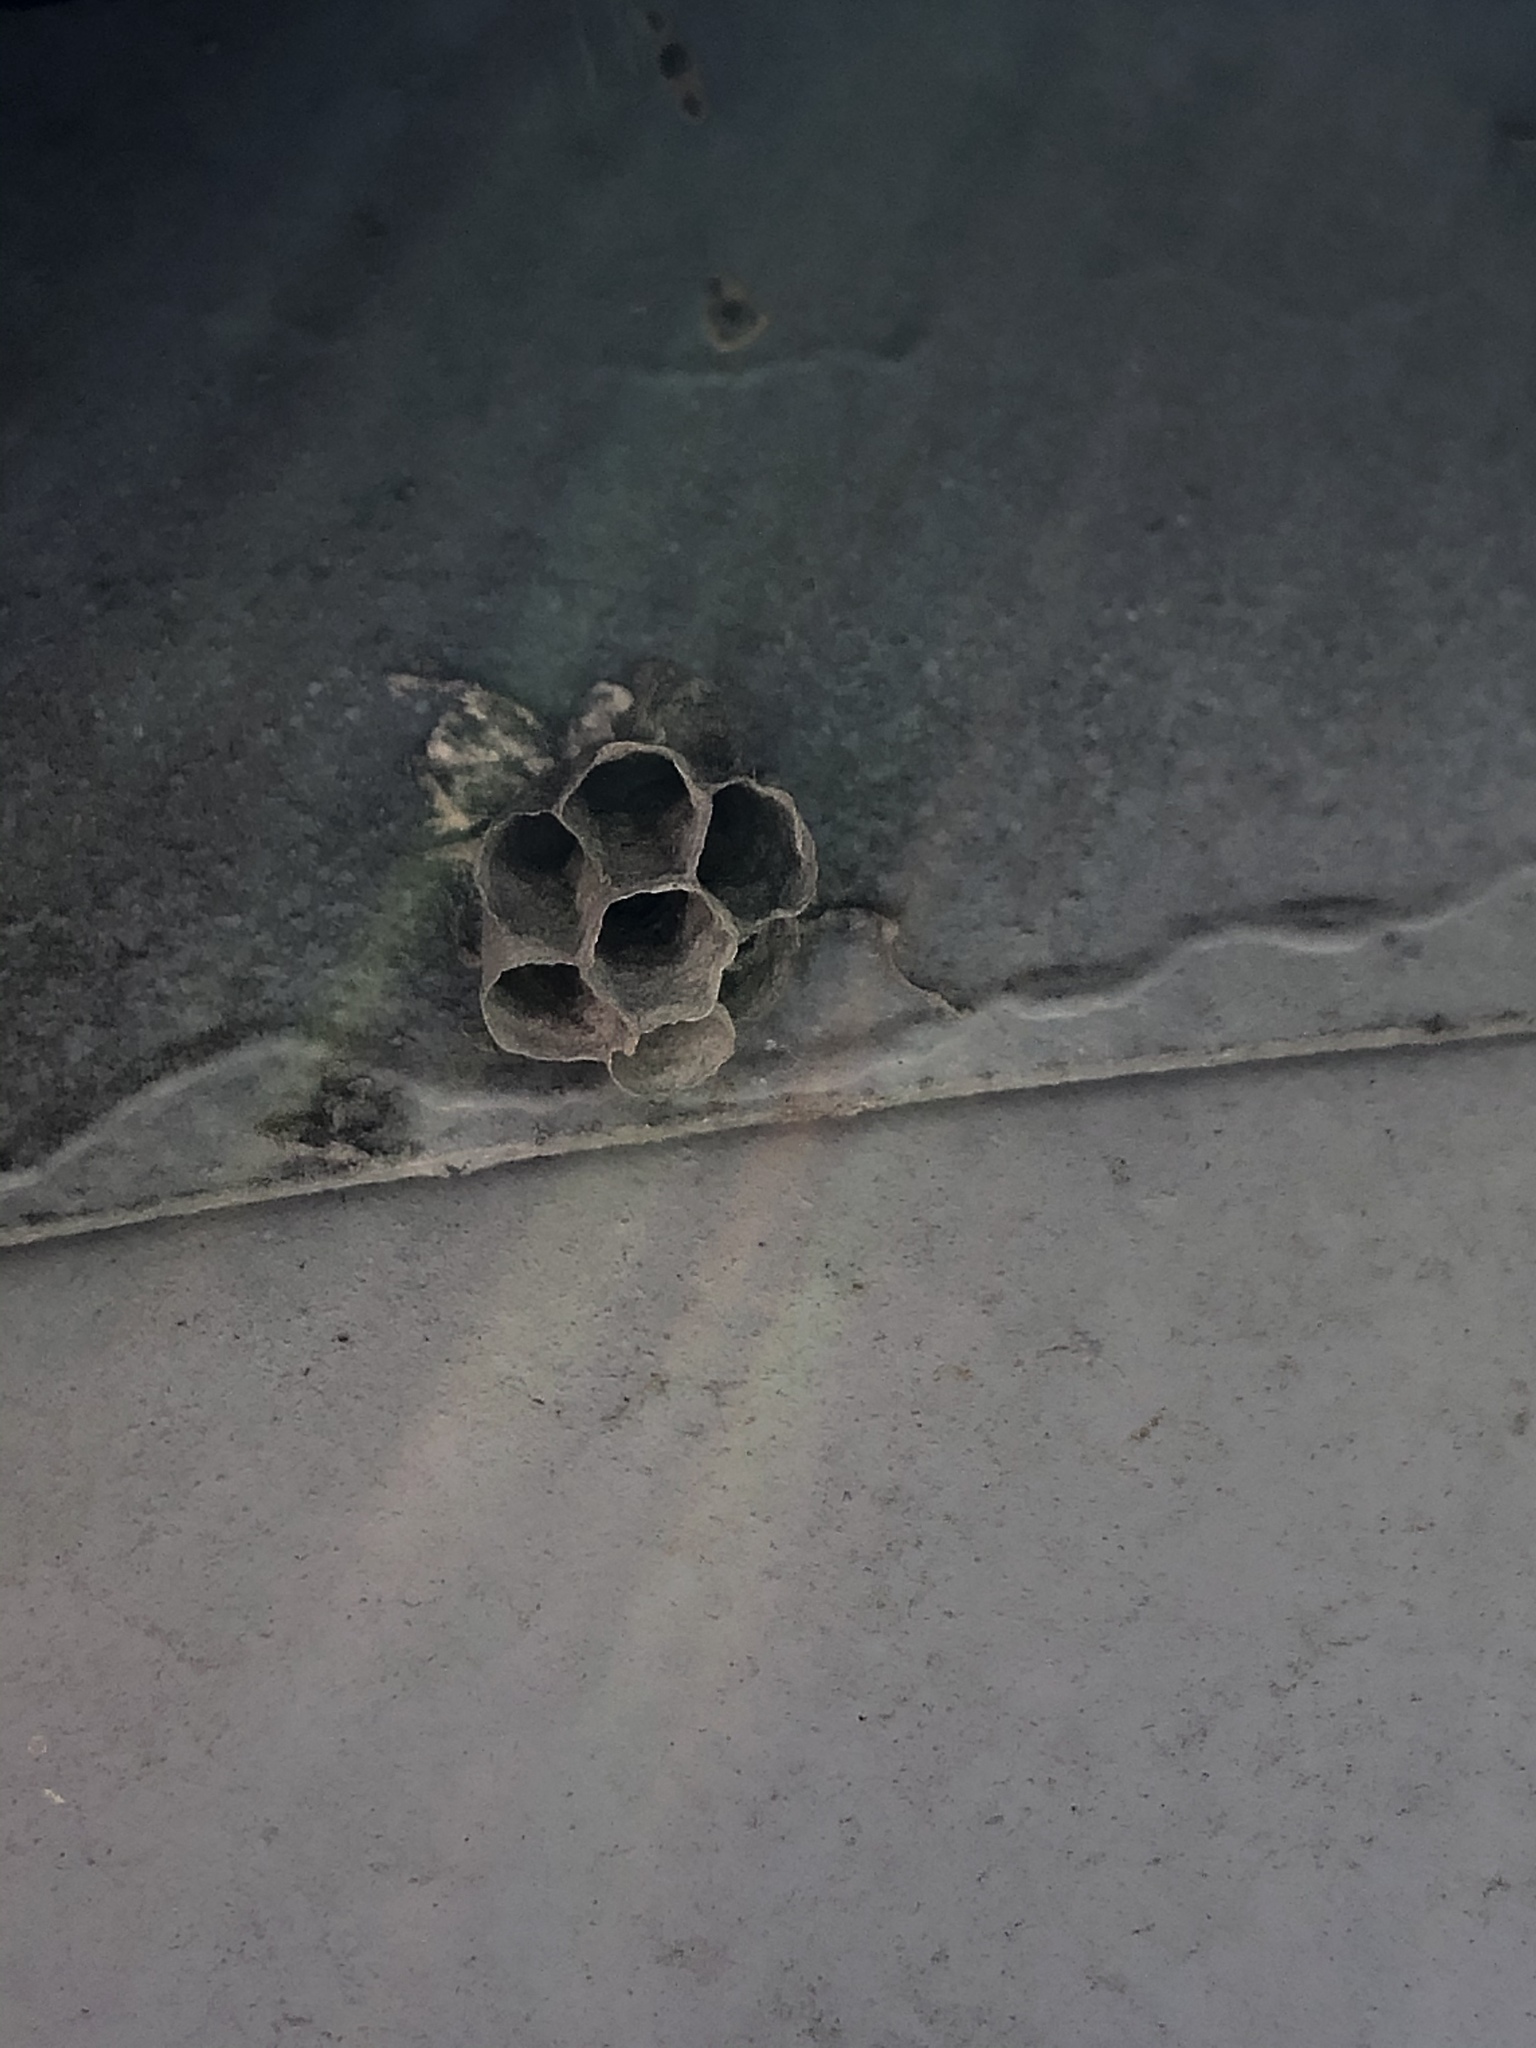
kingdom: Animalia
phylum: Arthropoda
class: Insecta
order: Hymenoptera
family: Eumenidae
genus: Polistes
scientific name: Polistes
